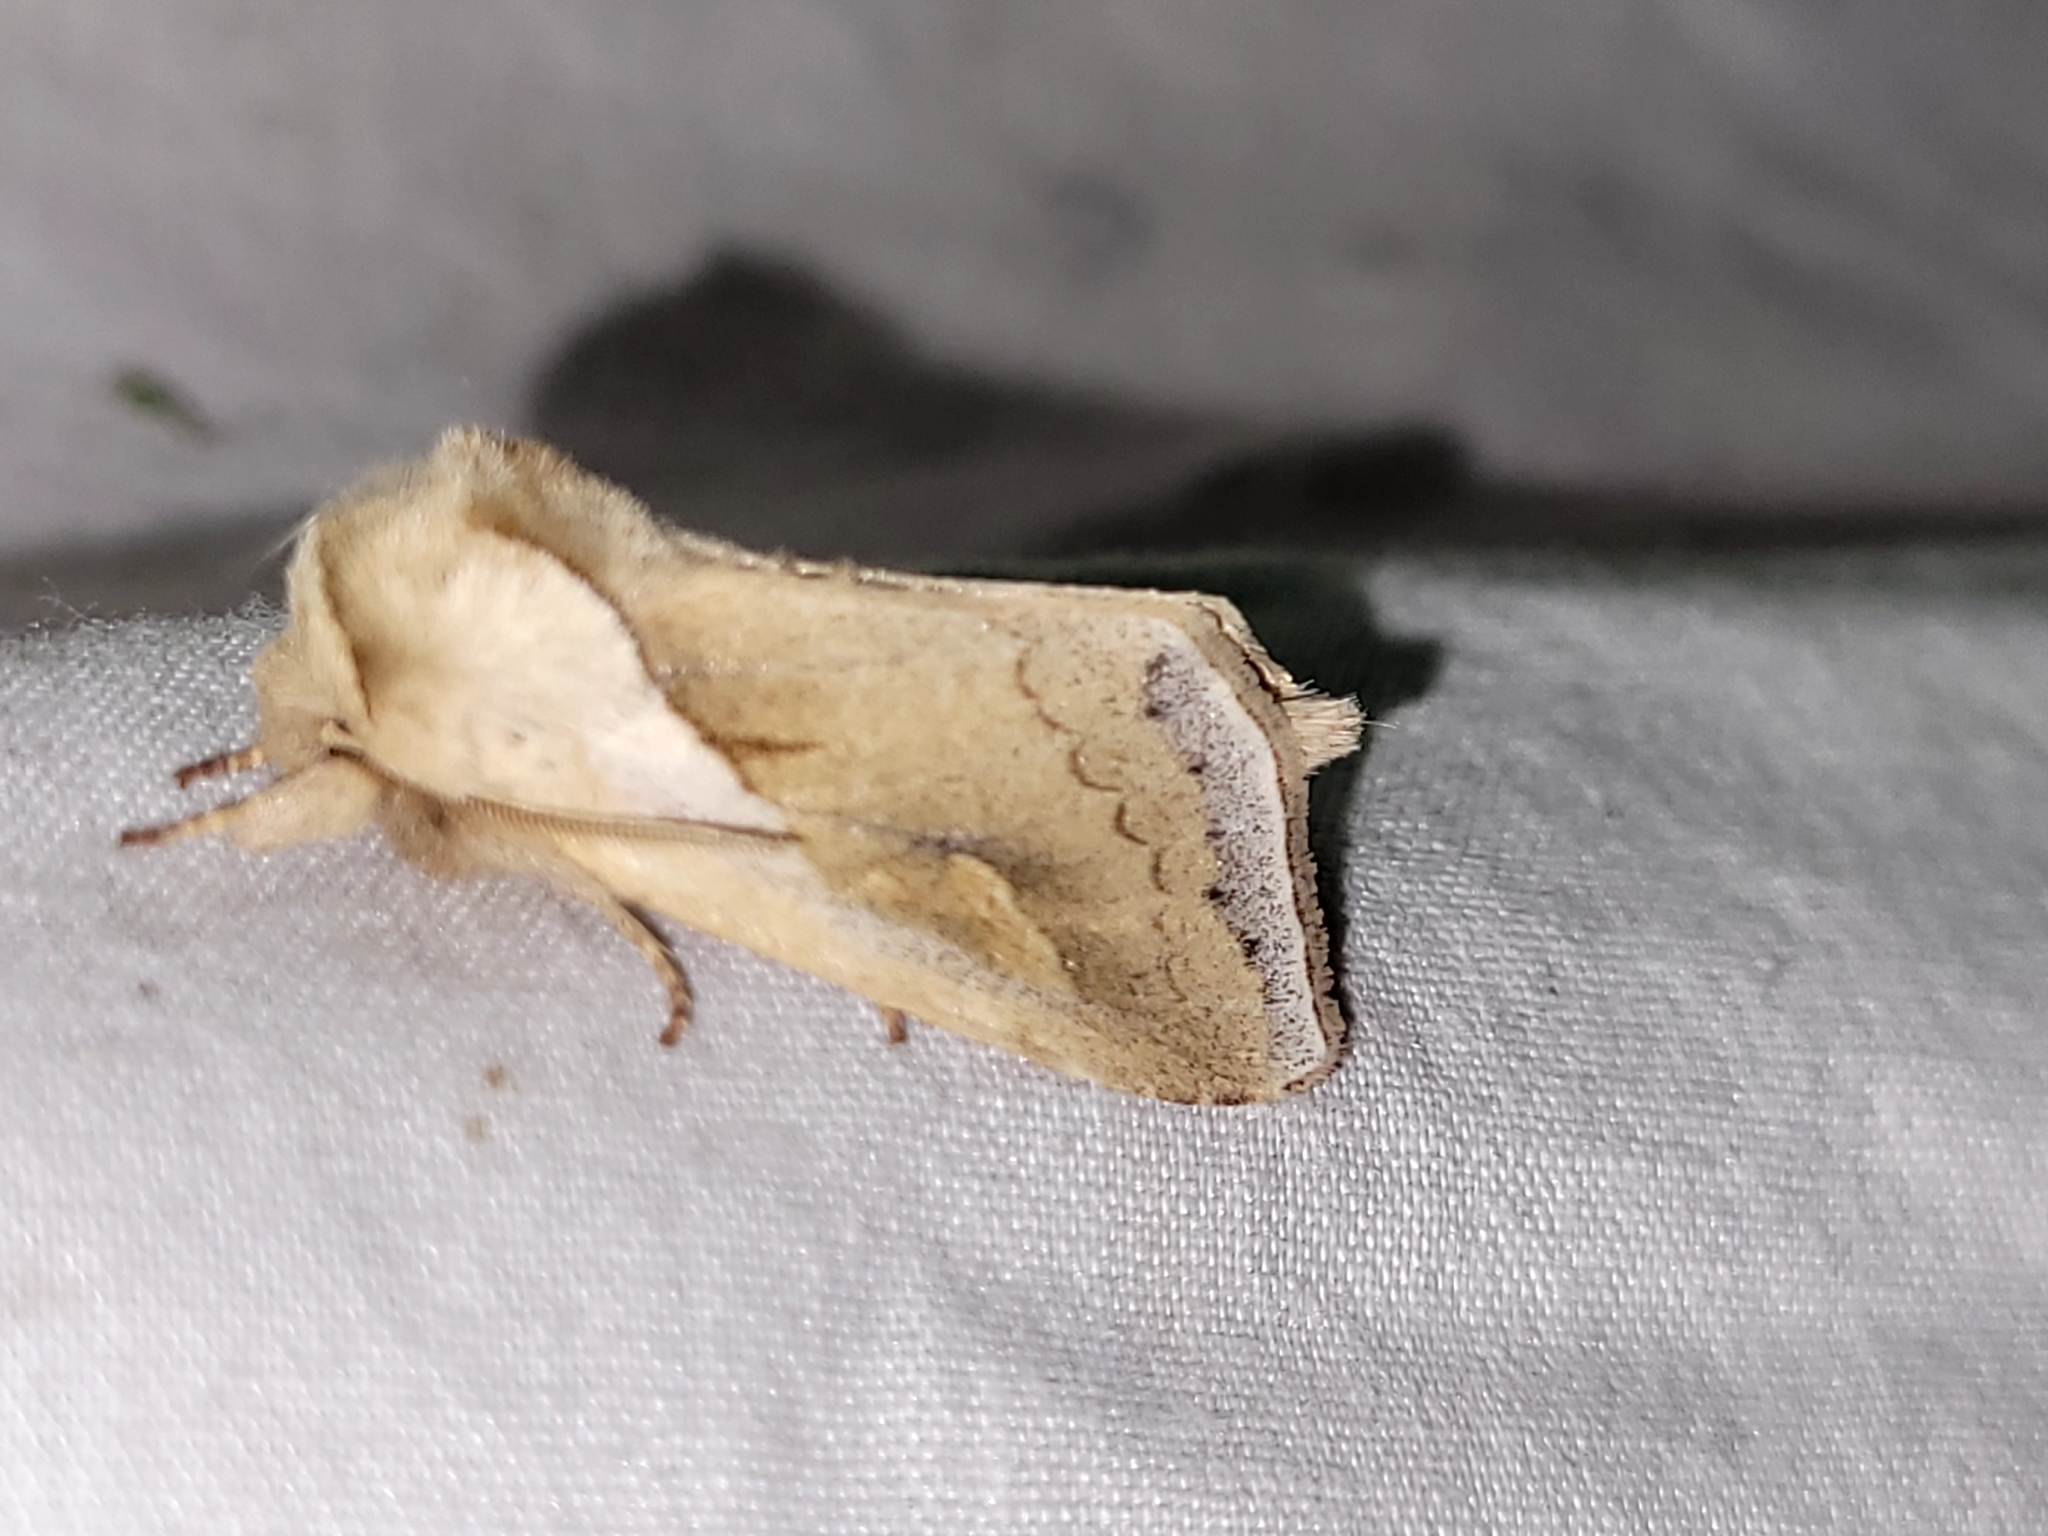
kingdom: Animalia
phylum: Arthropoda
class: Insecta
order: Lepidoptera
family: Noctuidae
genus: Bellura
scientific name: Bellura obliqua
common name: Cattail borer moth
